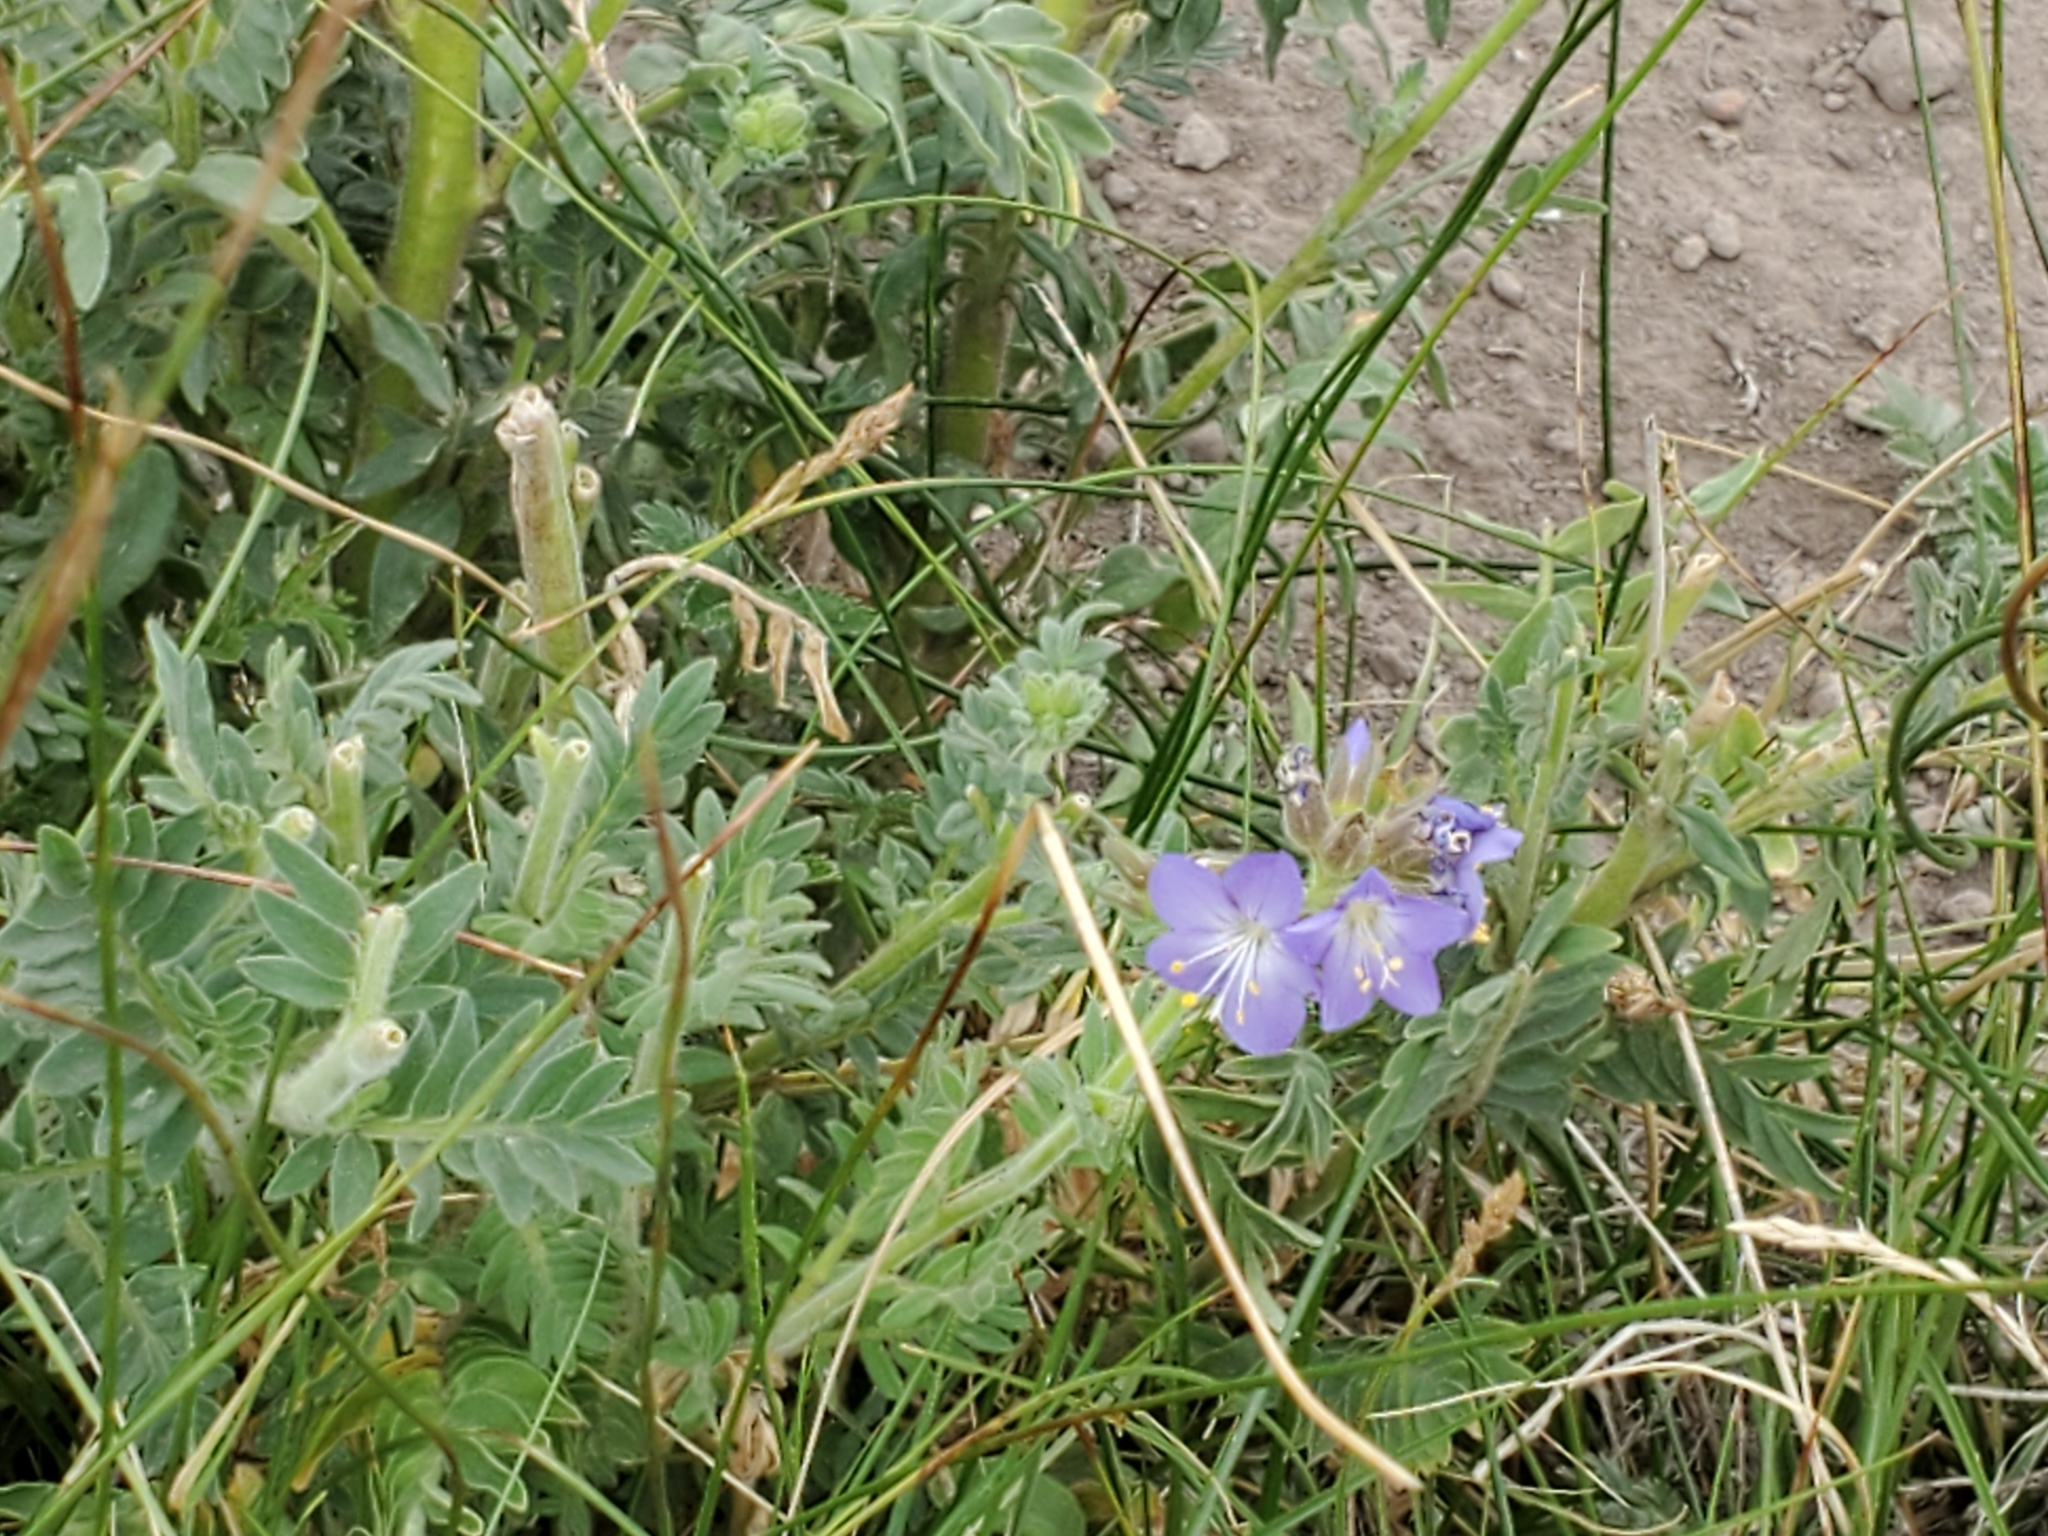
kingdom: Plantae
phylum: Tracheophyta
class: Magnoliopsida
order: Ericales
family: Polemoniaceae
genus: Polemonium
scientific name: Polemonium foliosissimum
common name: Leafy jacob's-ladder
